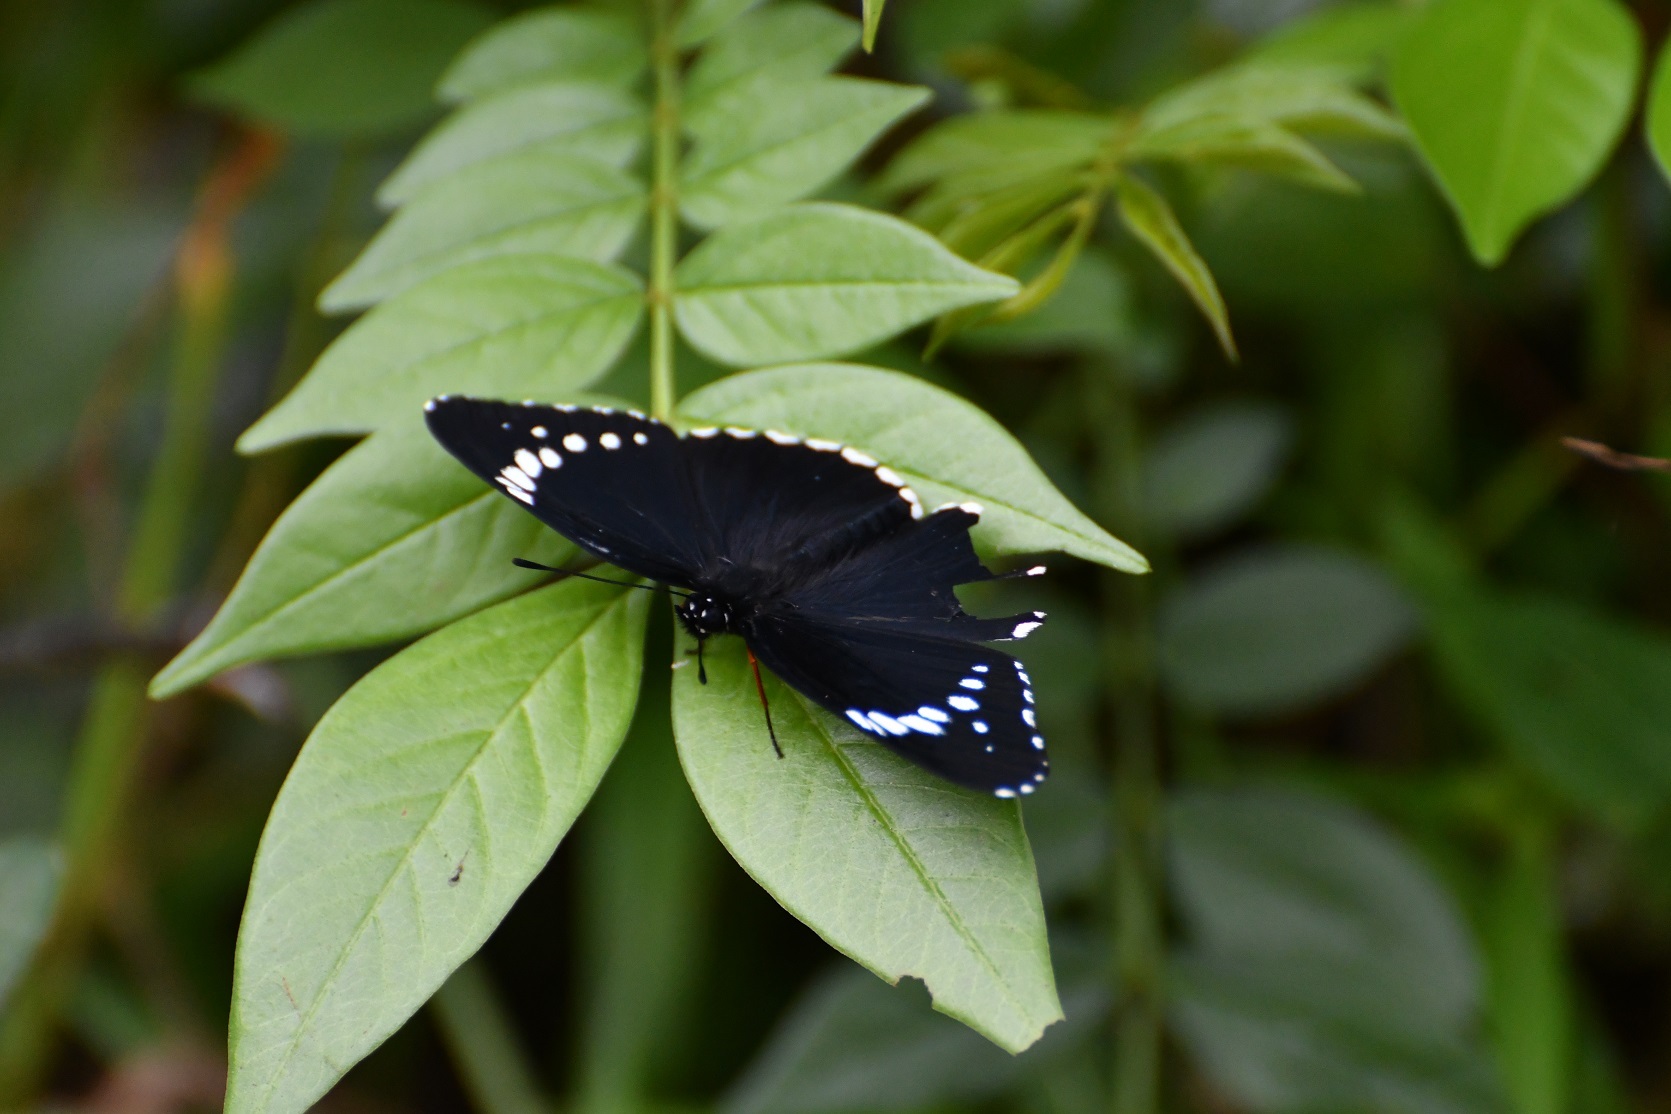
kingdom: Animalia
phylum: Arthropoda
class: Insecta
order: Lepidoptera
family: Nymphalidae
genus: Chlosyne
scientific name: Chlosyne hippodrome
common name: Simple patch
